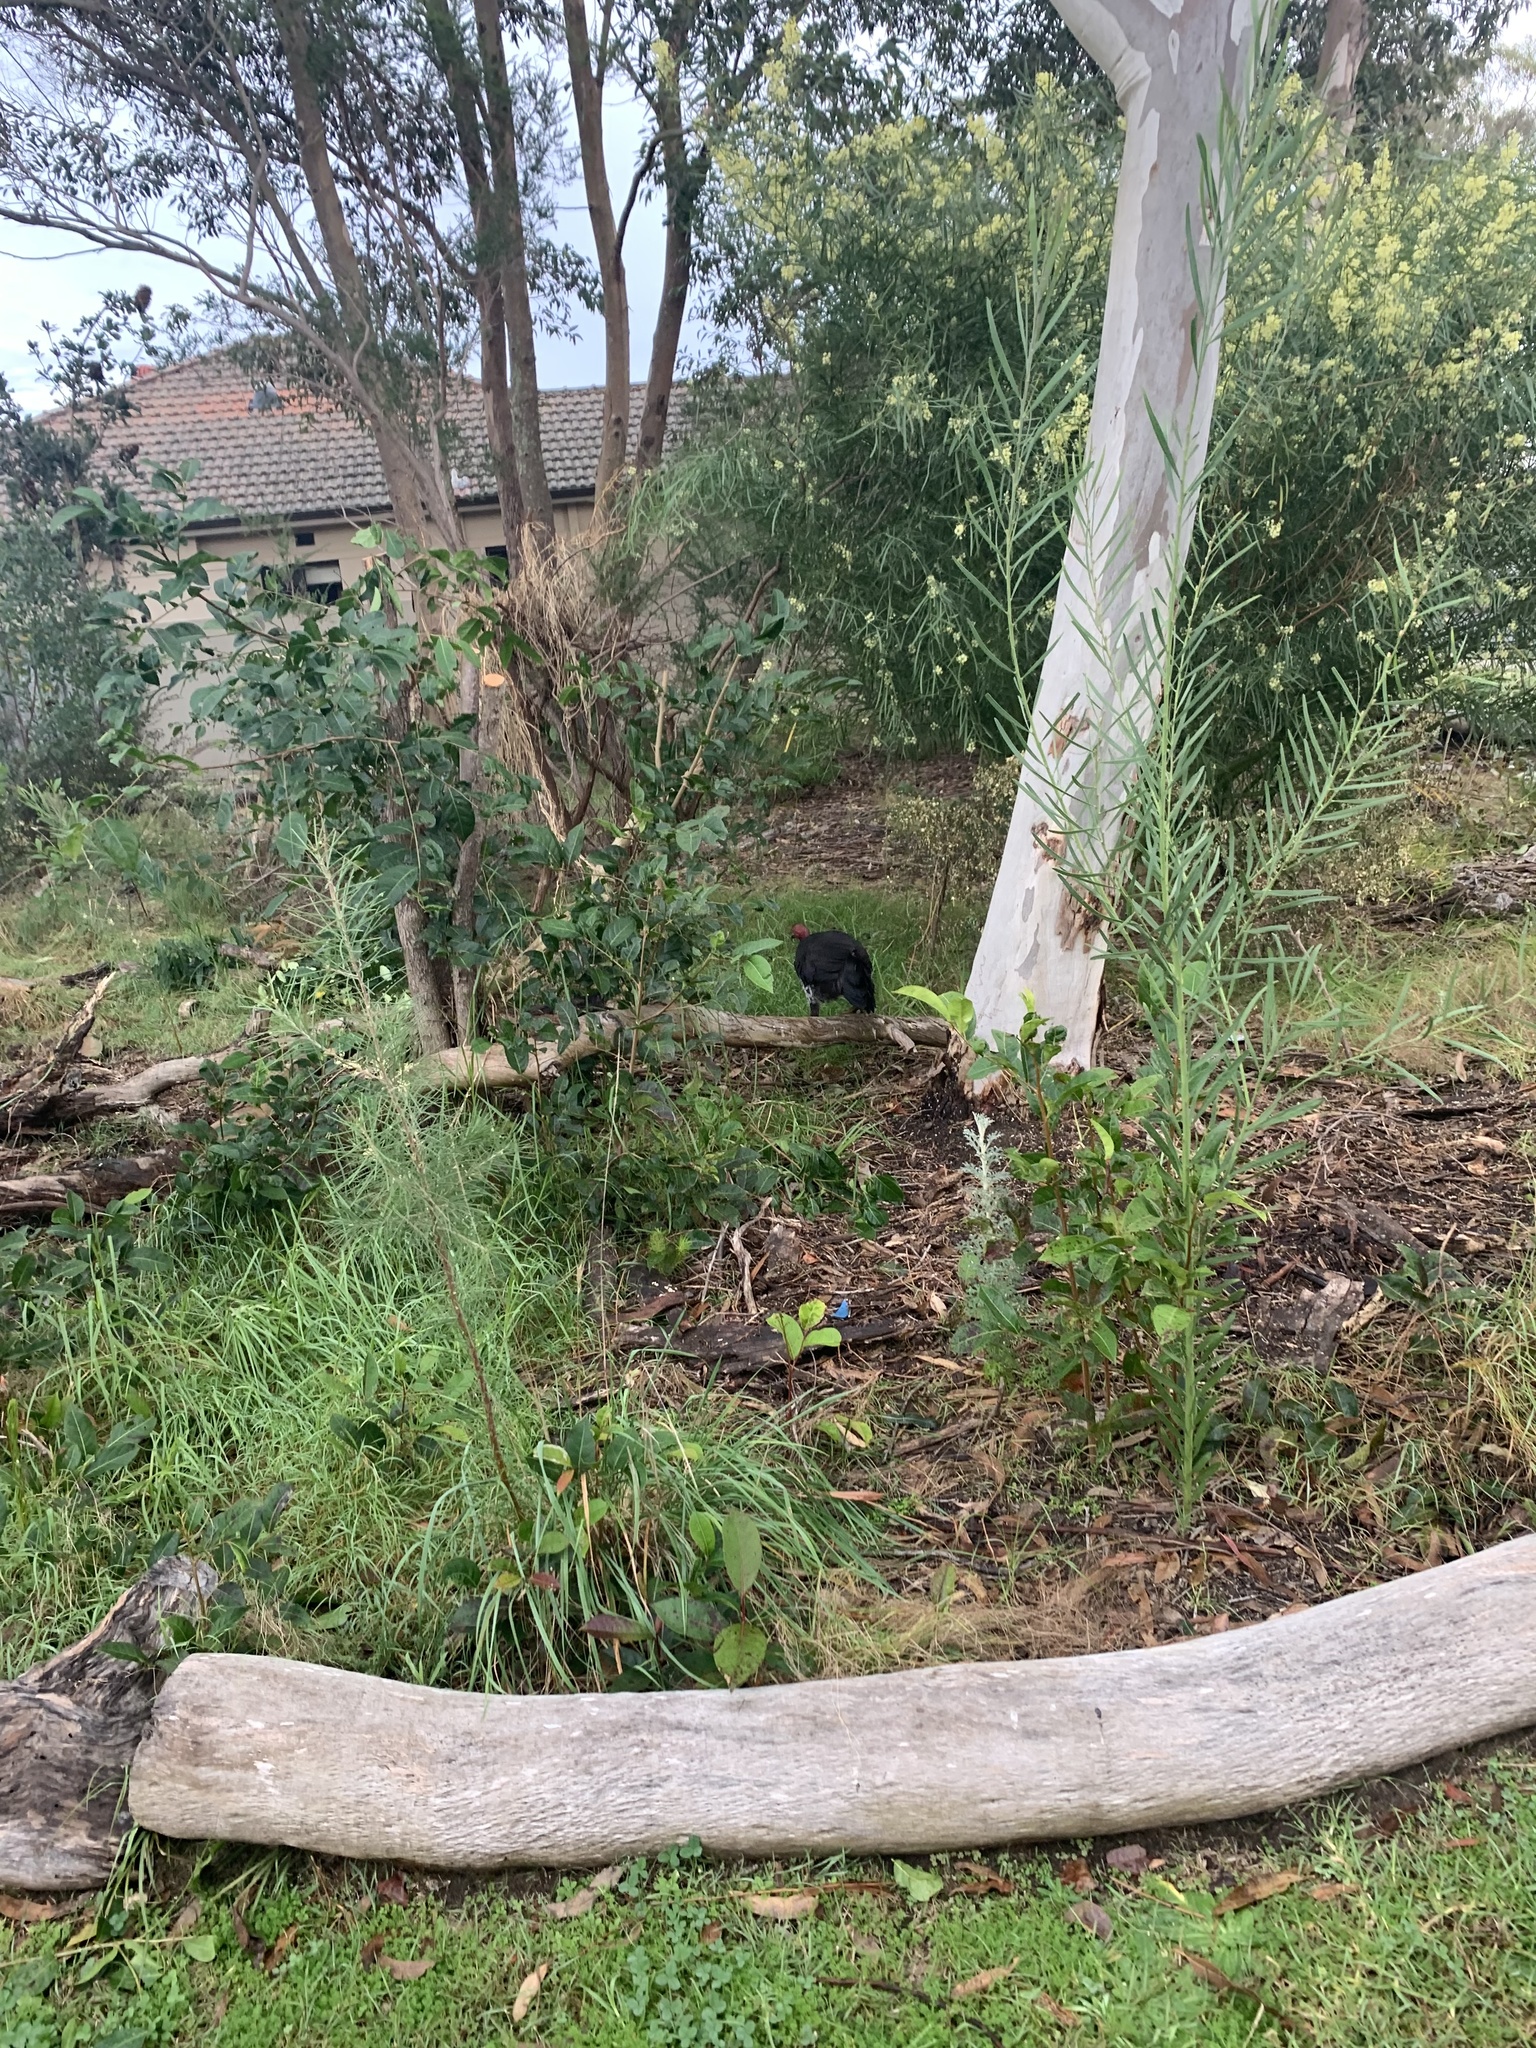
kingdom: Animalia
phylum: Chordata
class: Aves
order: Galliformes
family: Megapodiidae
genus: Alectura
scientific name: Alectura lathami
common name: Australian brushturkey
